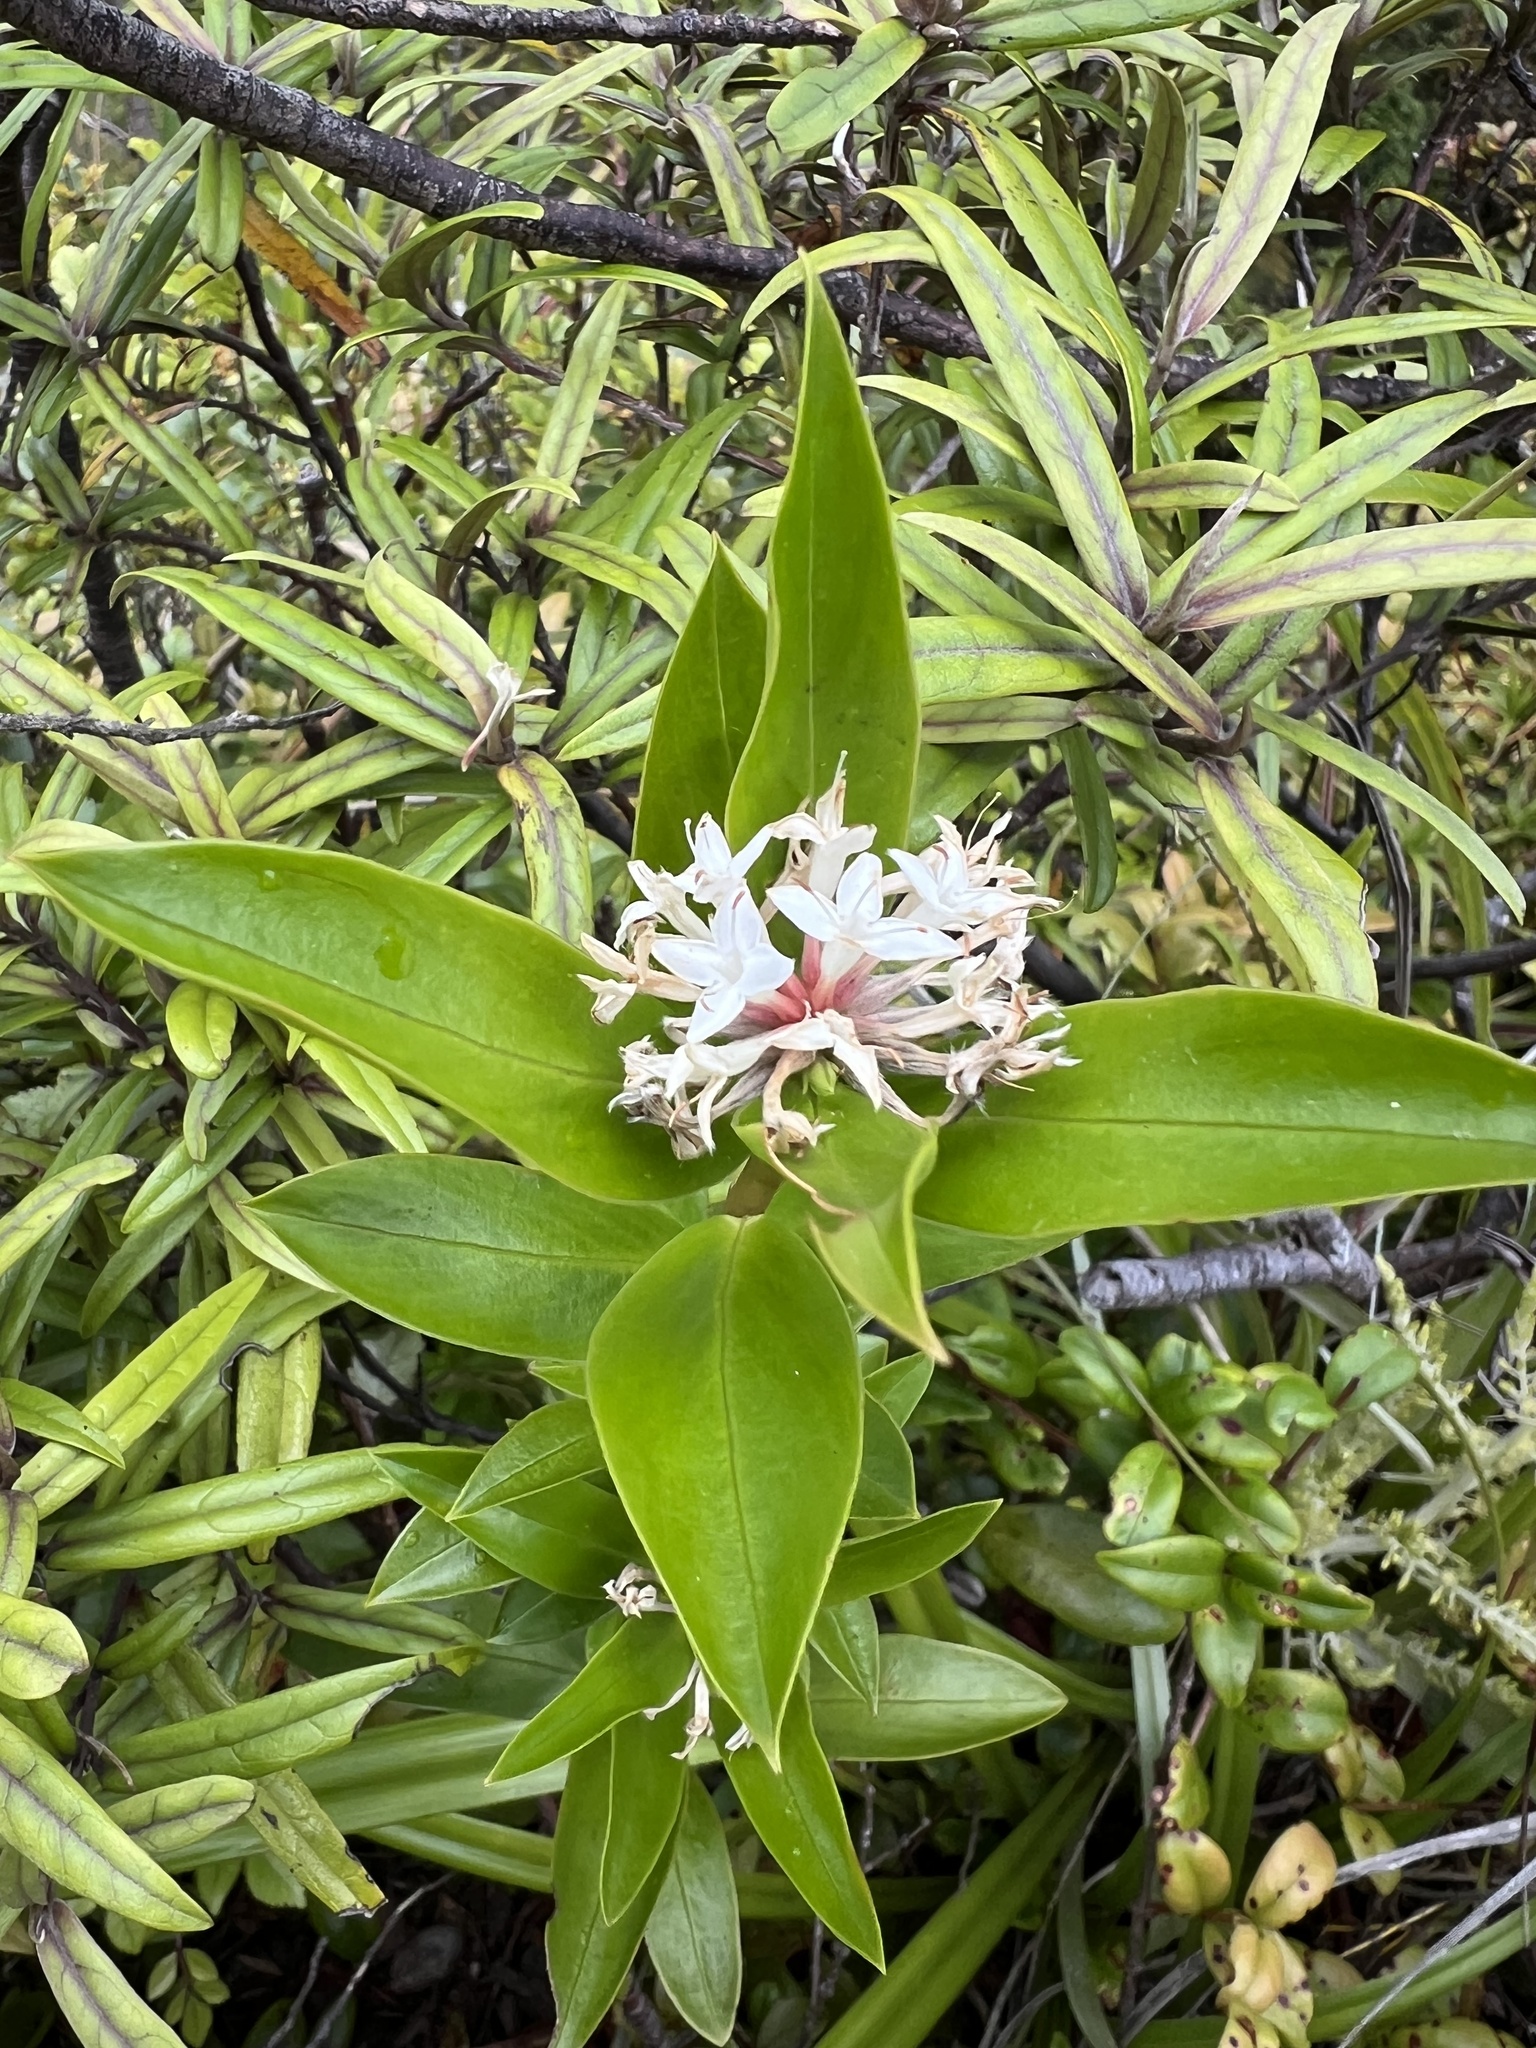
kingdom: Plantae
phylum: Tracheophyta
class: Magnoliopsida
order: Malvales
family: Thymelaeaceae
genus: Pimelea
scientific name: Pimelea longifolia
